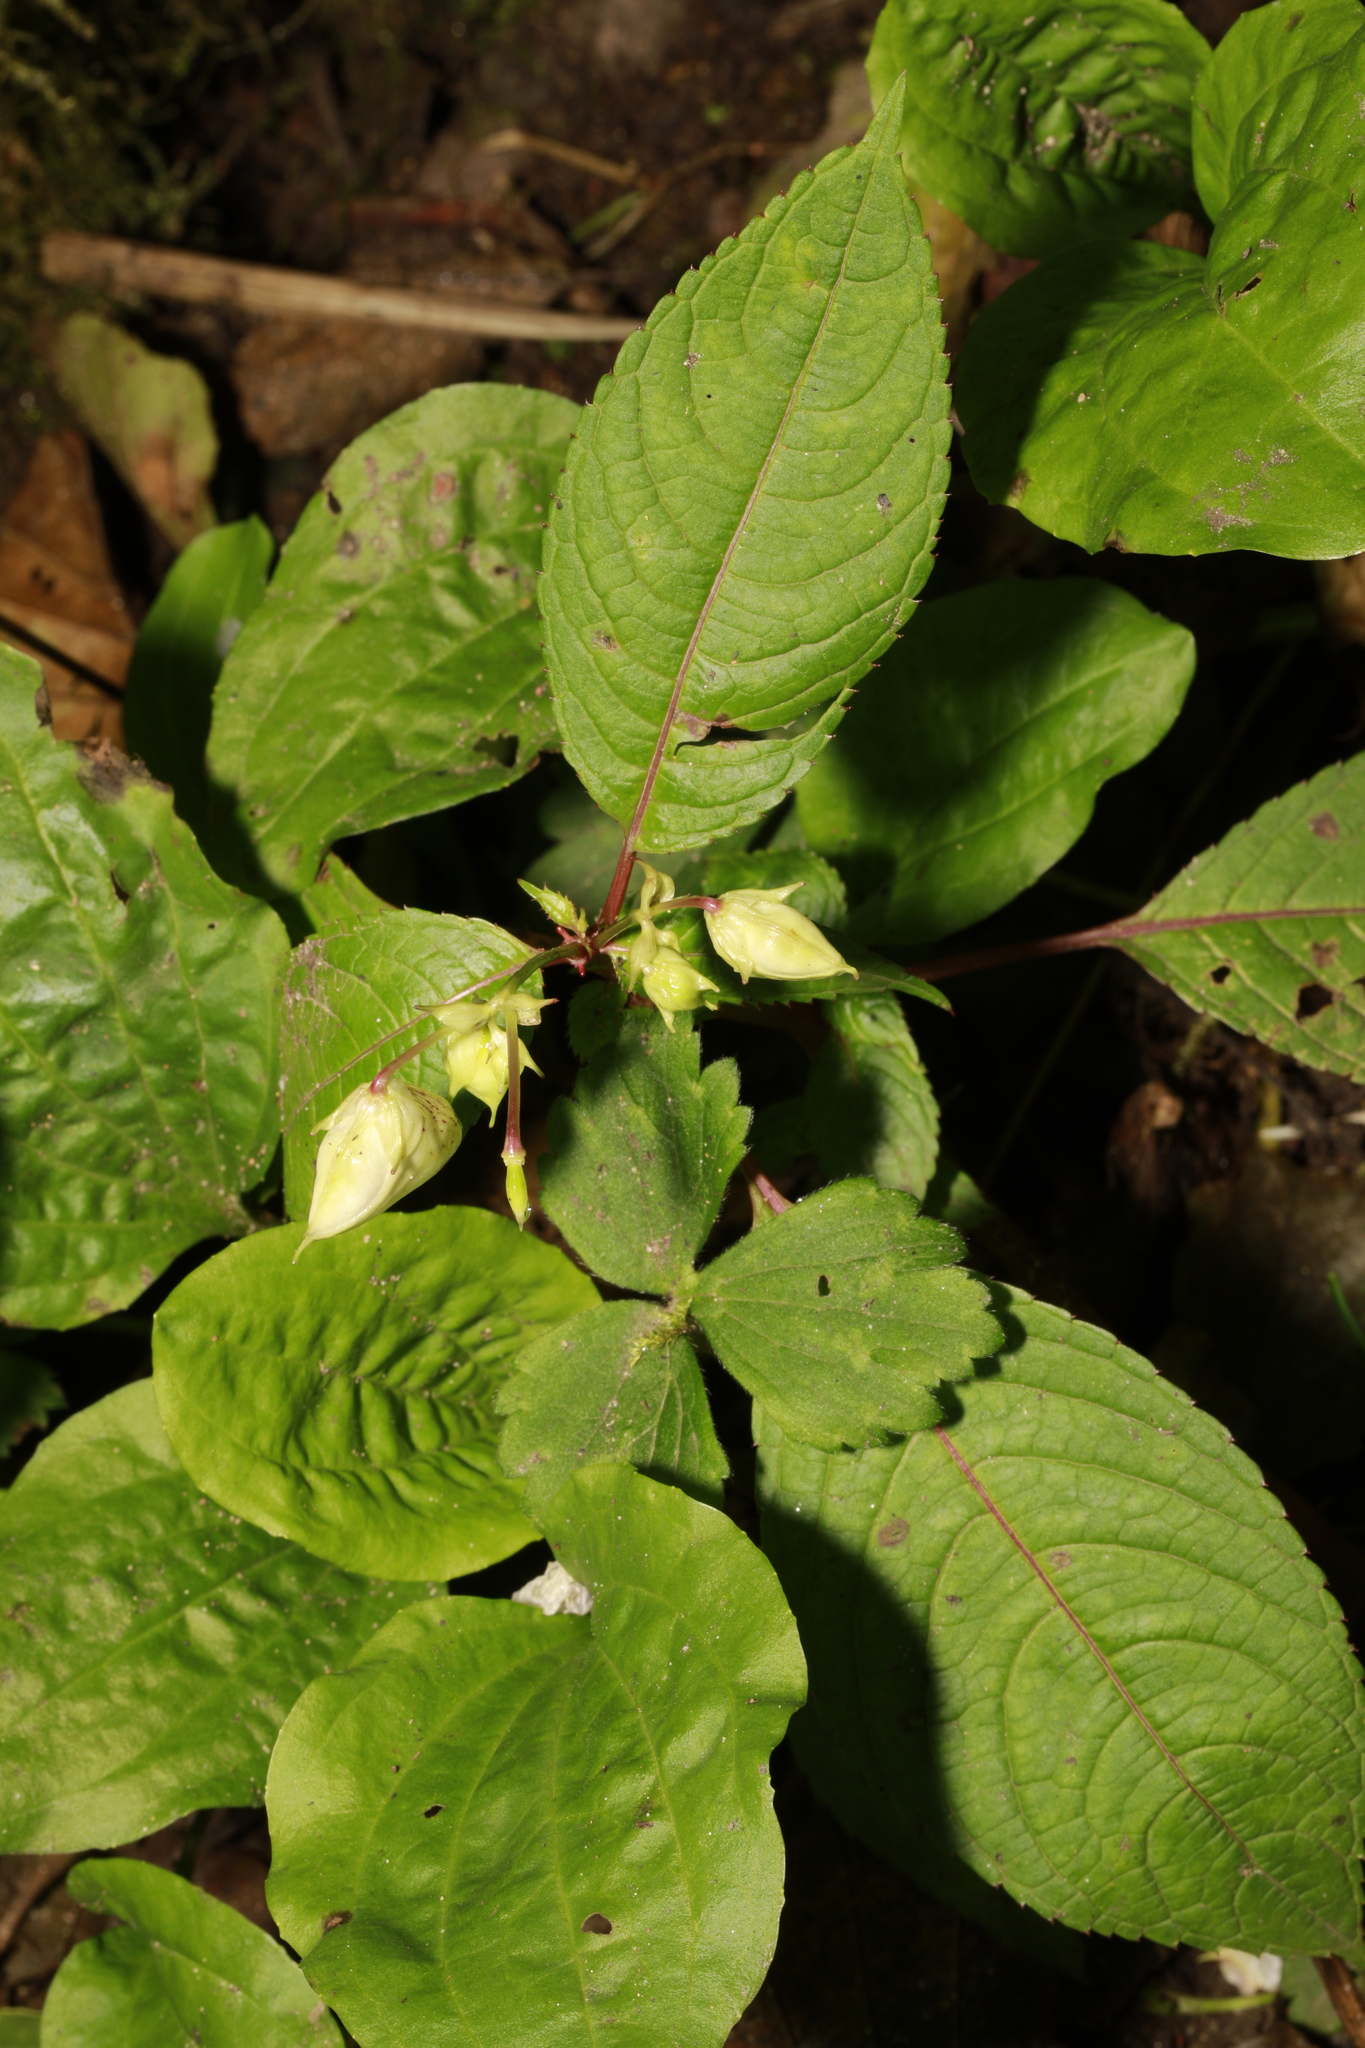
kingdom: Plantae
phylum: Tracheophyta
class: Magnoliopsida
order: Ericales
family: Balsaminaceae
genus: Impatiens
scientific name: Impatiens glandulifera
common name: Himalayan balsam
